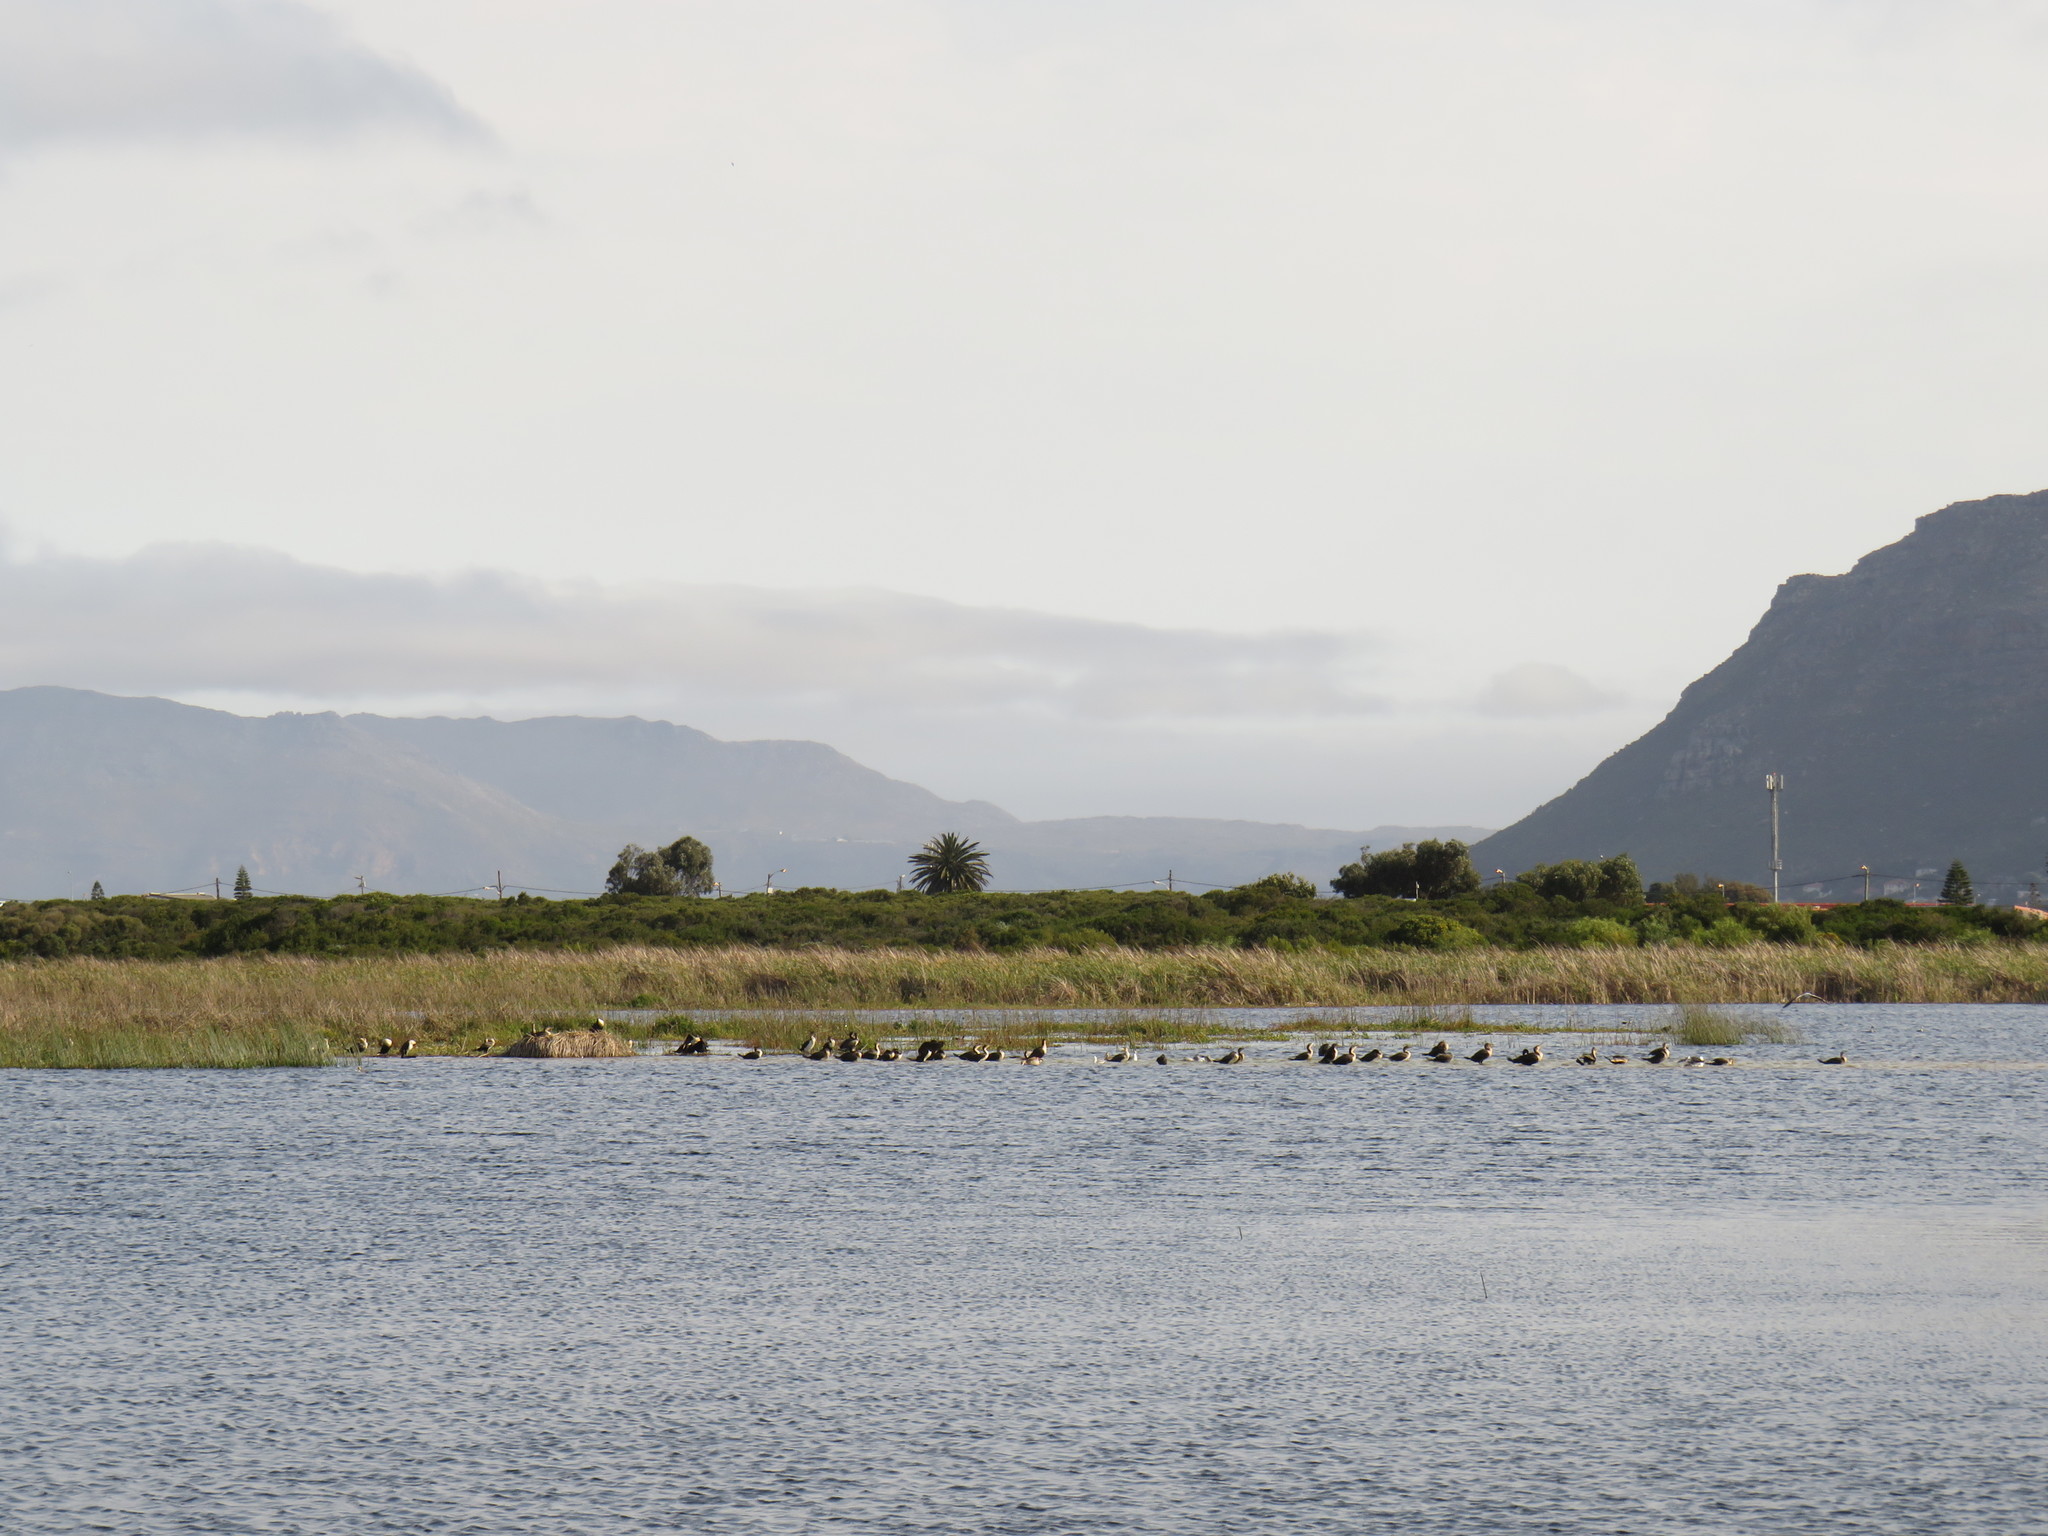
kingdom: Animalia
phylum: Chordata
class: Aves
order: Suliformes
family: Phalacrocoracidae
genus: Phalacrocorax
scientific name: Phalacrocorax carbo
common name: Great cormorant
